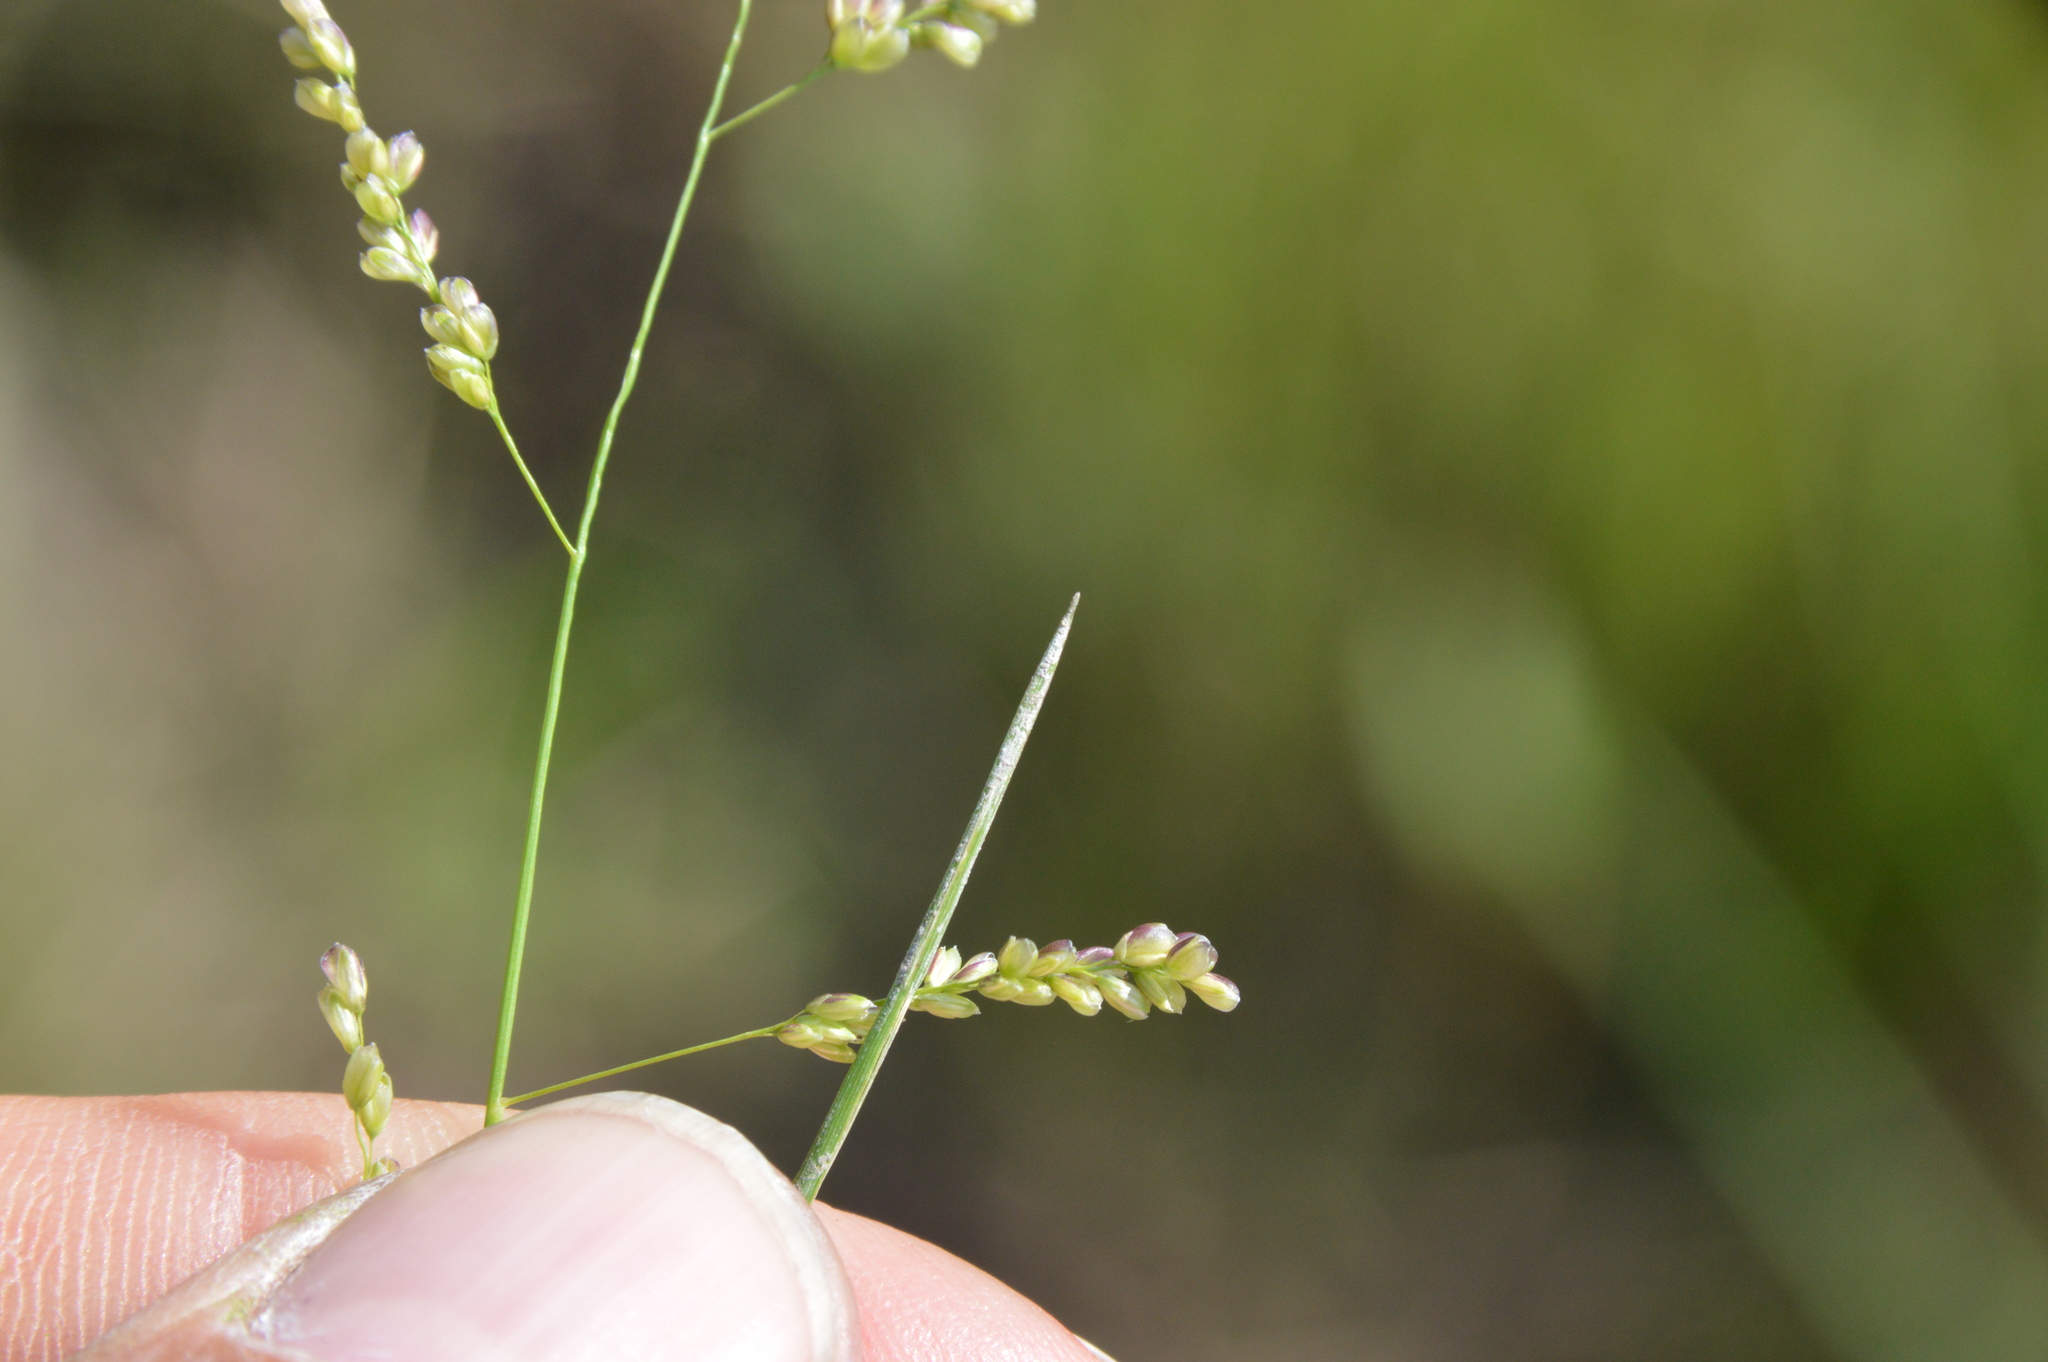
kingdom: Plantae
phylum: Tracheophyta
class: Liliopsida
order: Poales
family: Poaceae
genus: Steinchisma
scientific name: Steinchisma hians
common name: Gaping panic grass
